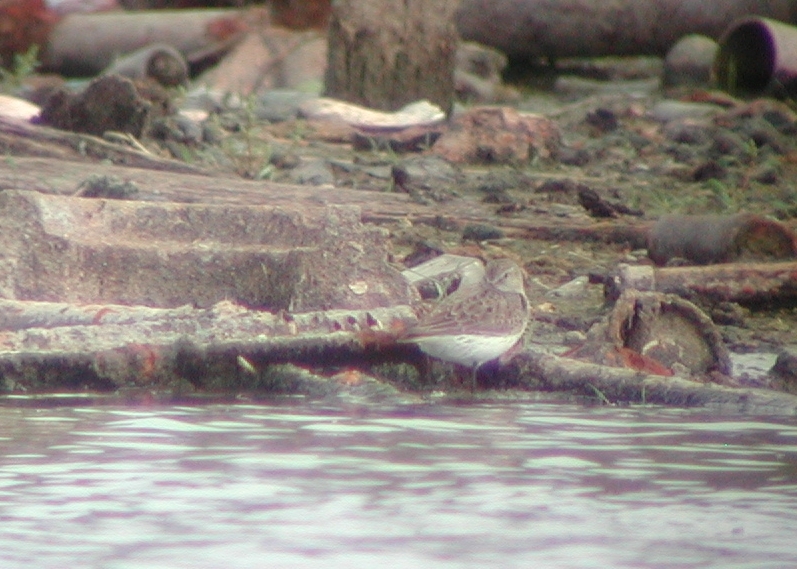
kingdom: Animalia
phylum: Chordata
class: Aves
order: Charadriiformes
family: Scolopacidae
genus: Calidris
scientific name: Calidris fuscicollis
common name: White-rumped sandpiper
